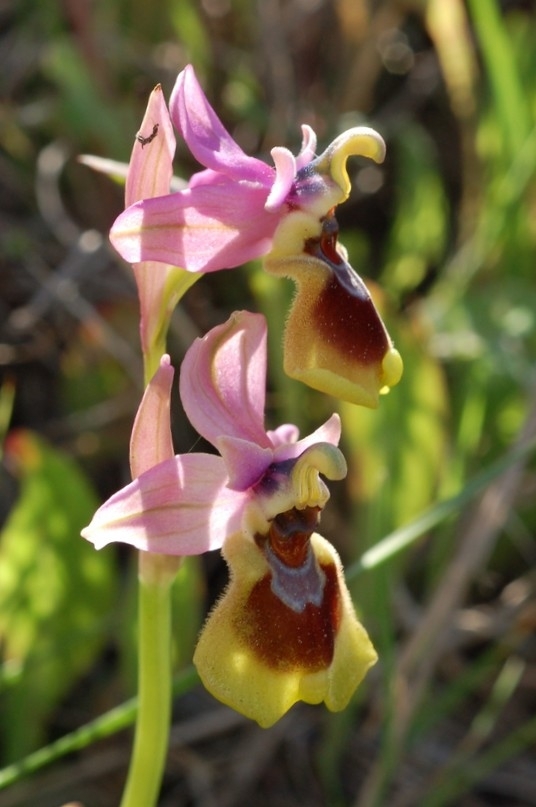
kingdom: Plantae
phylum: Tracheophyta
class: Liliopsida
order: Asparagales
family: Orchidaceae
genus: Ophrys
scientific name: Ophrys tenthredinifera
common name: Sawfly orchid
